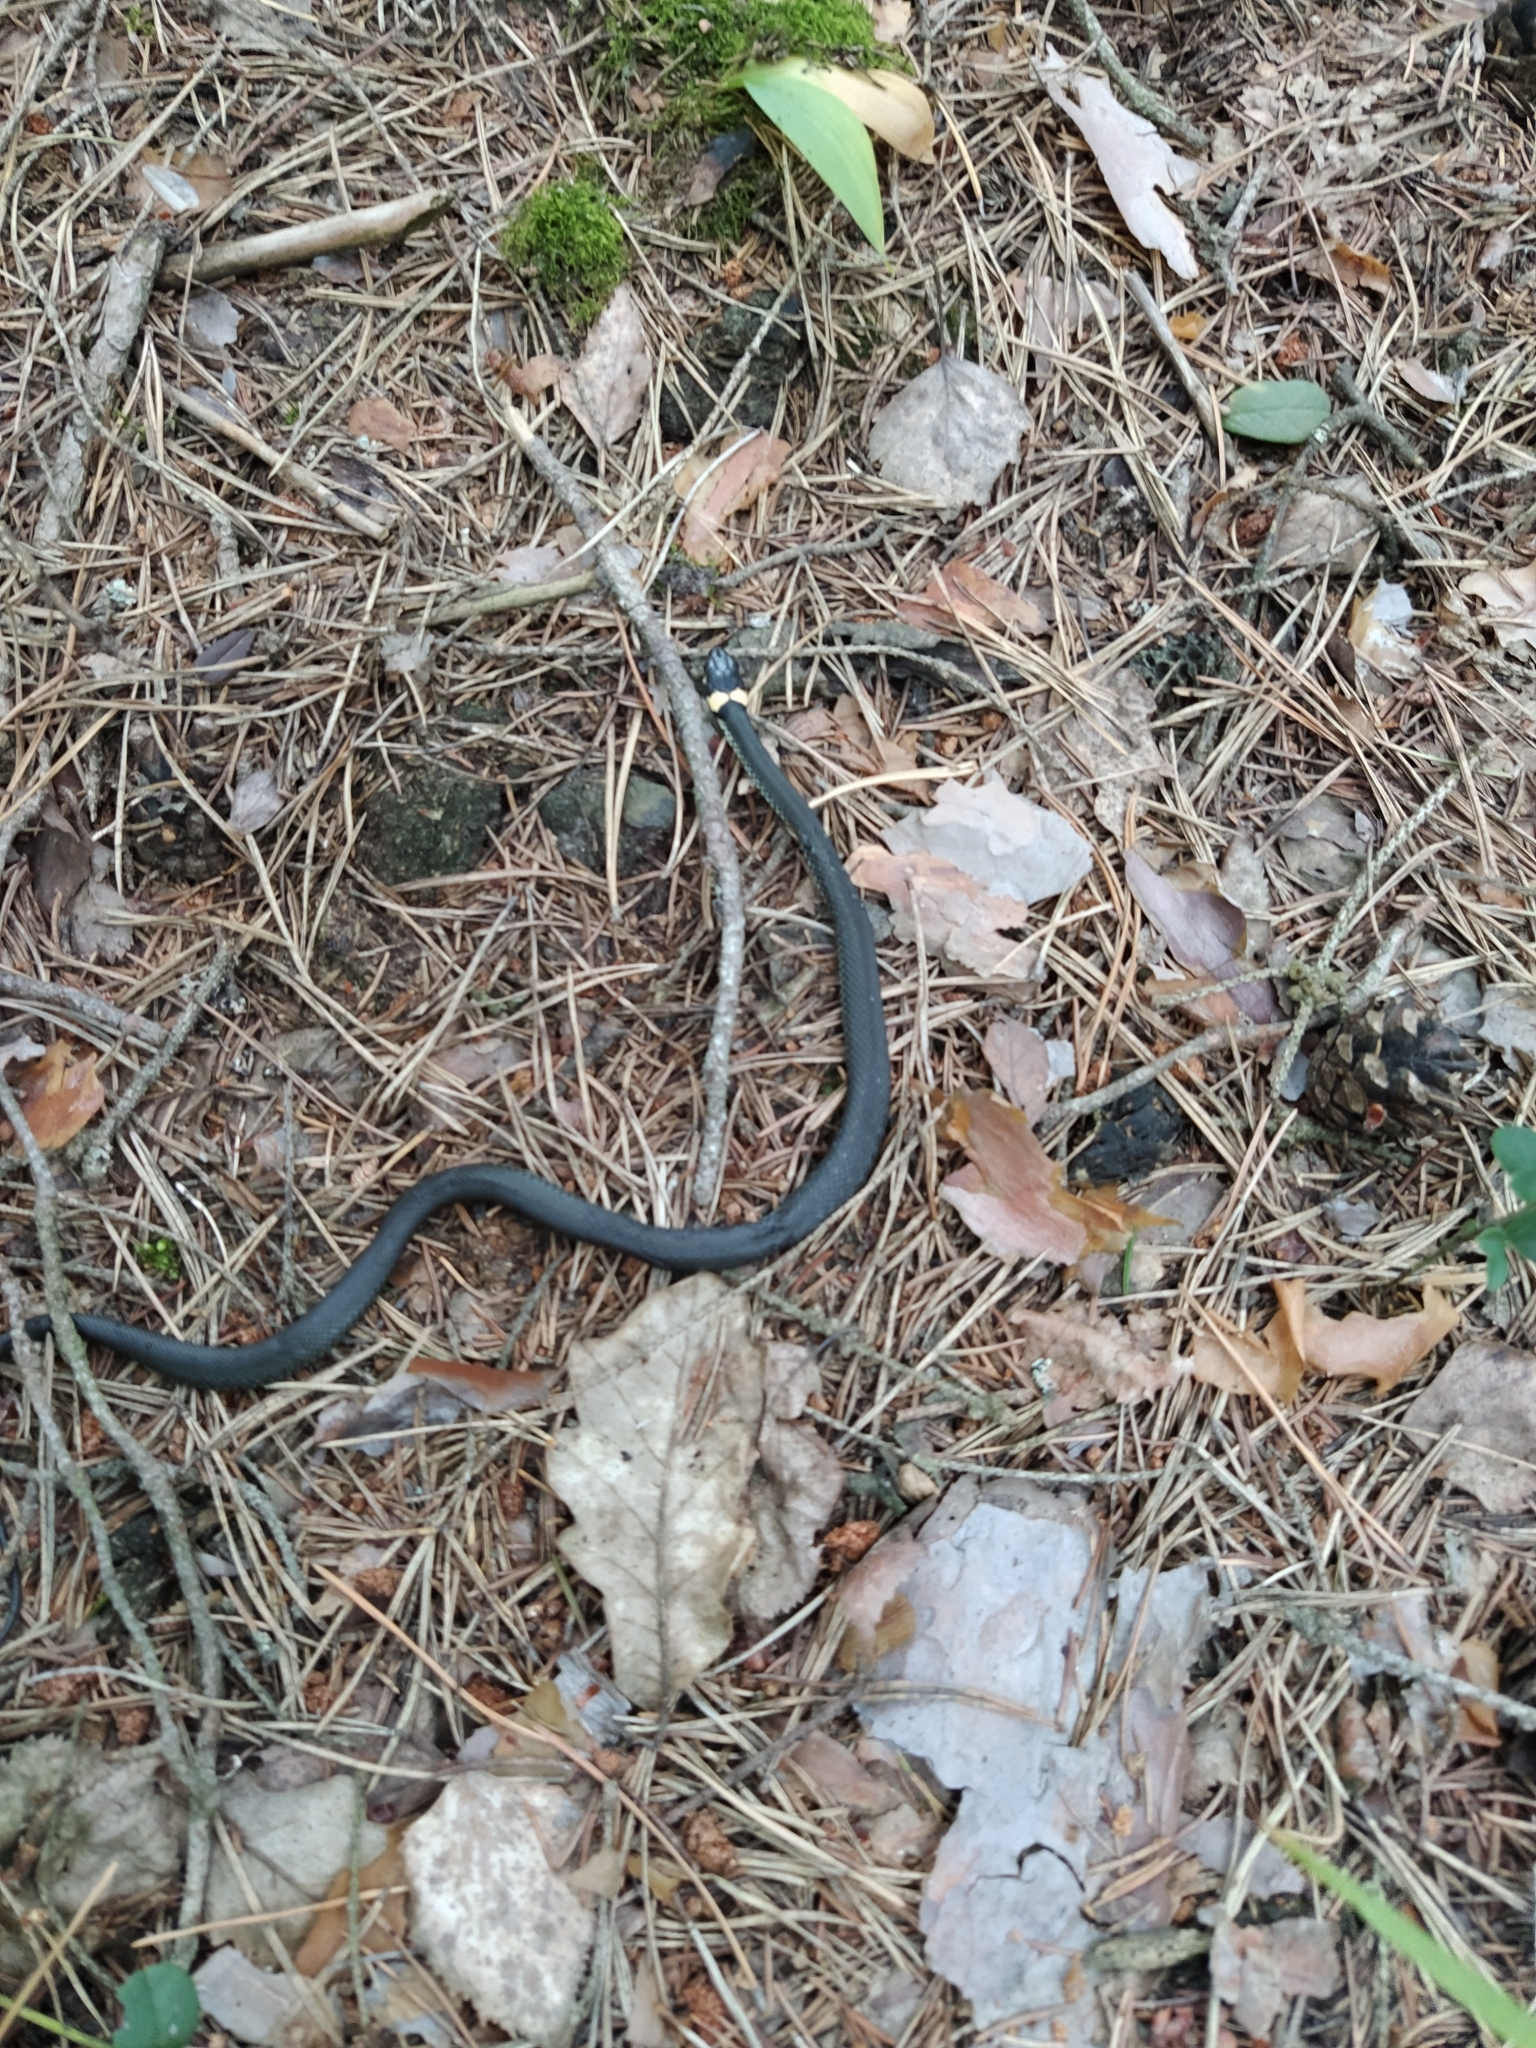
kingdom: Animalia
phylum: Chordata
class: Squamata
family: Colubridae
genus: Natrix
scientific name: Natrix natrix
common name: Grass snake
